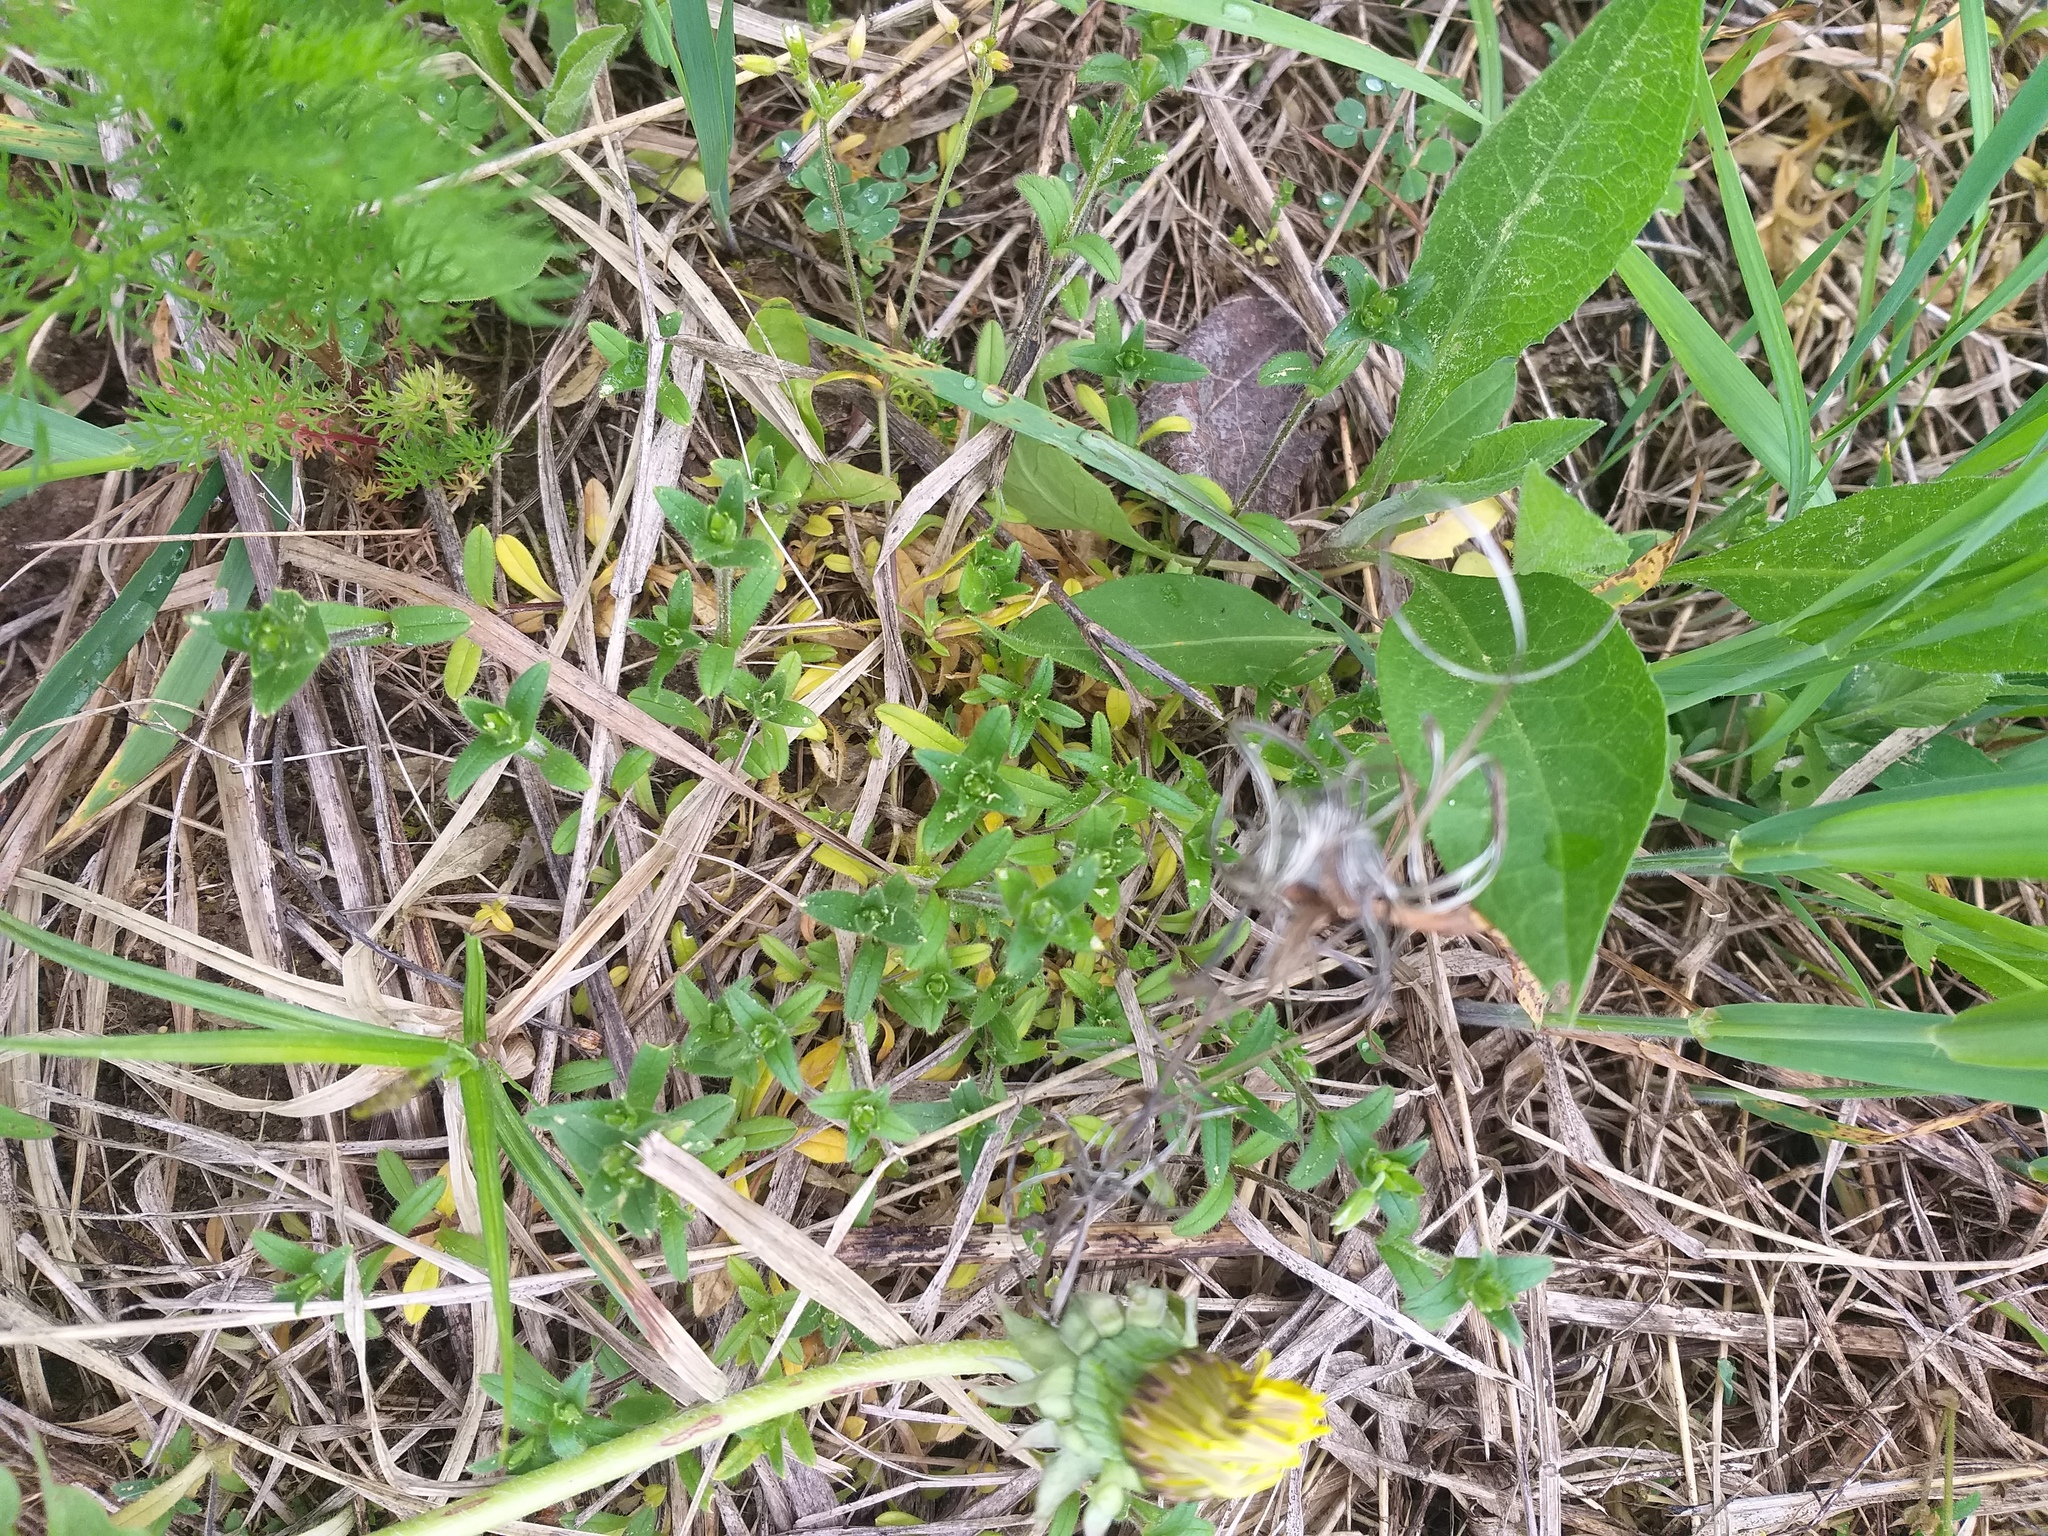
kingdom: Plantae
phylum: Tracheophyta
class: Magnoliopsida
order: Caryophyllales
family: Caryophyllaceae
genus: Cerastium
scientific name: Cerastium holosteoides
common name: Big chickweed
